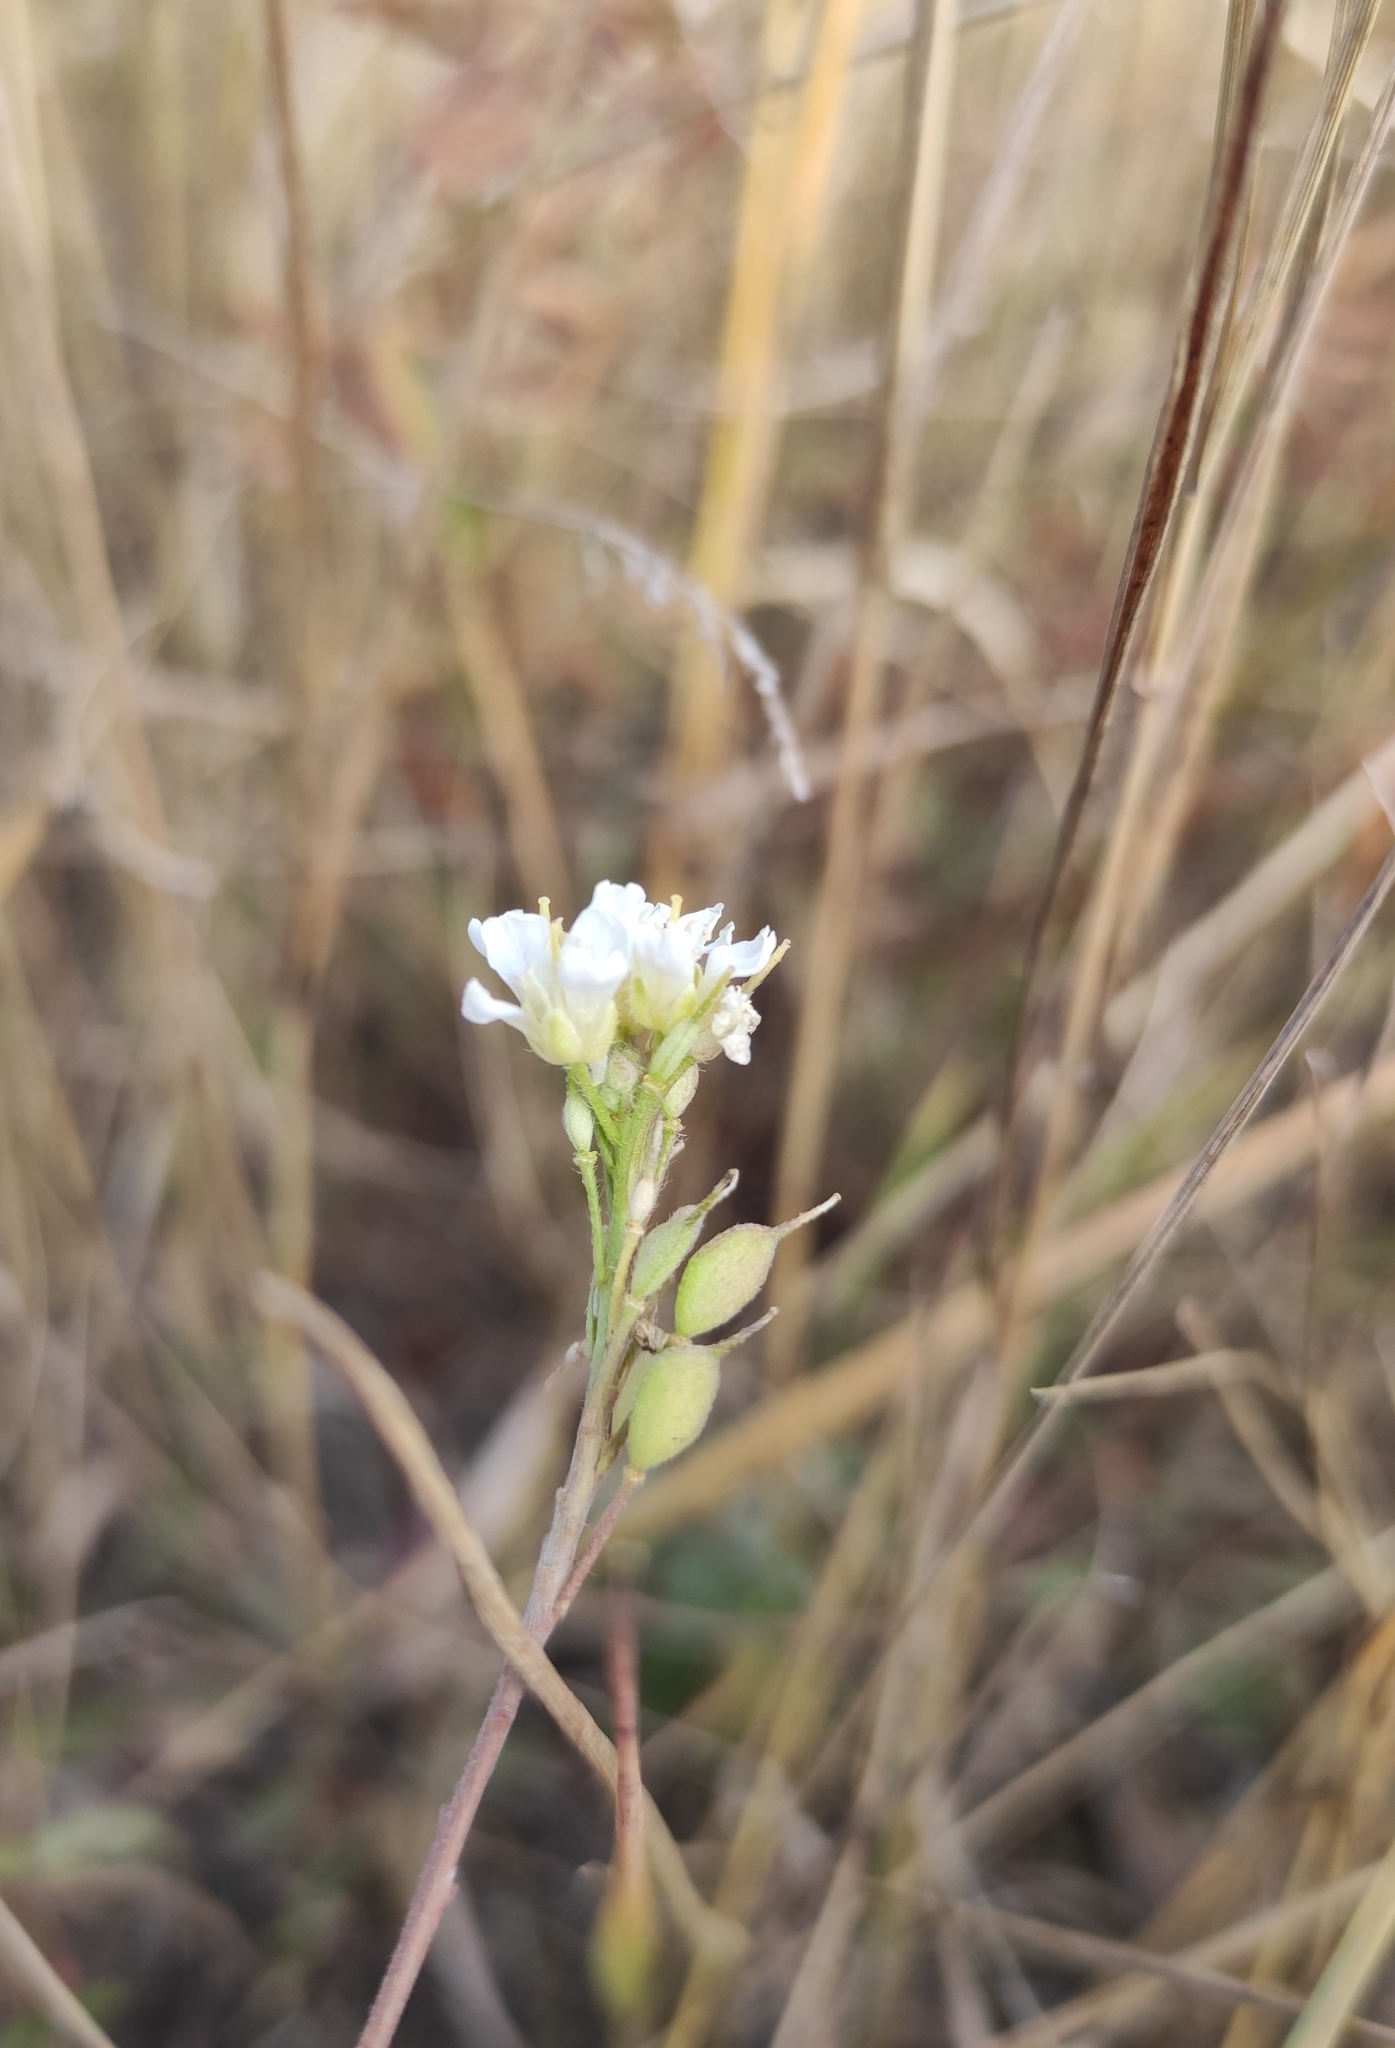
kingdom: Plantae
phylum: Tracheophyta
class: Magnoliopsida
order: Brassicales
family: Brassicaceae
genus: Berteroa
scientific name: Berteroa incana
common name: Hoary alison
